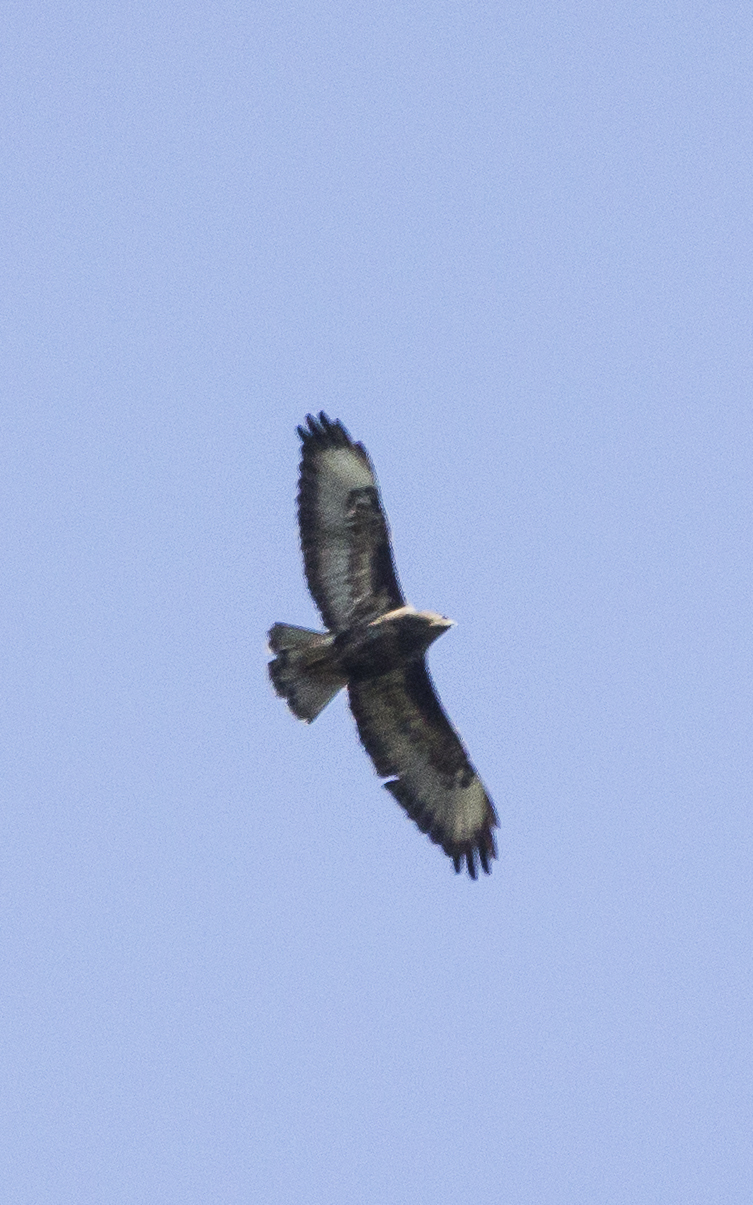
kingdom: Animalia
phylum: Chordata
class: Aves
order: Accipitriformes
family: Accipitridae
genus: Buteo
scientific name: Buteo buteo
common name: Common buzzard
